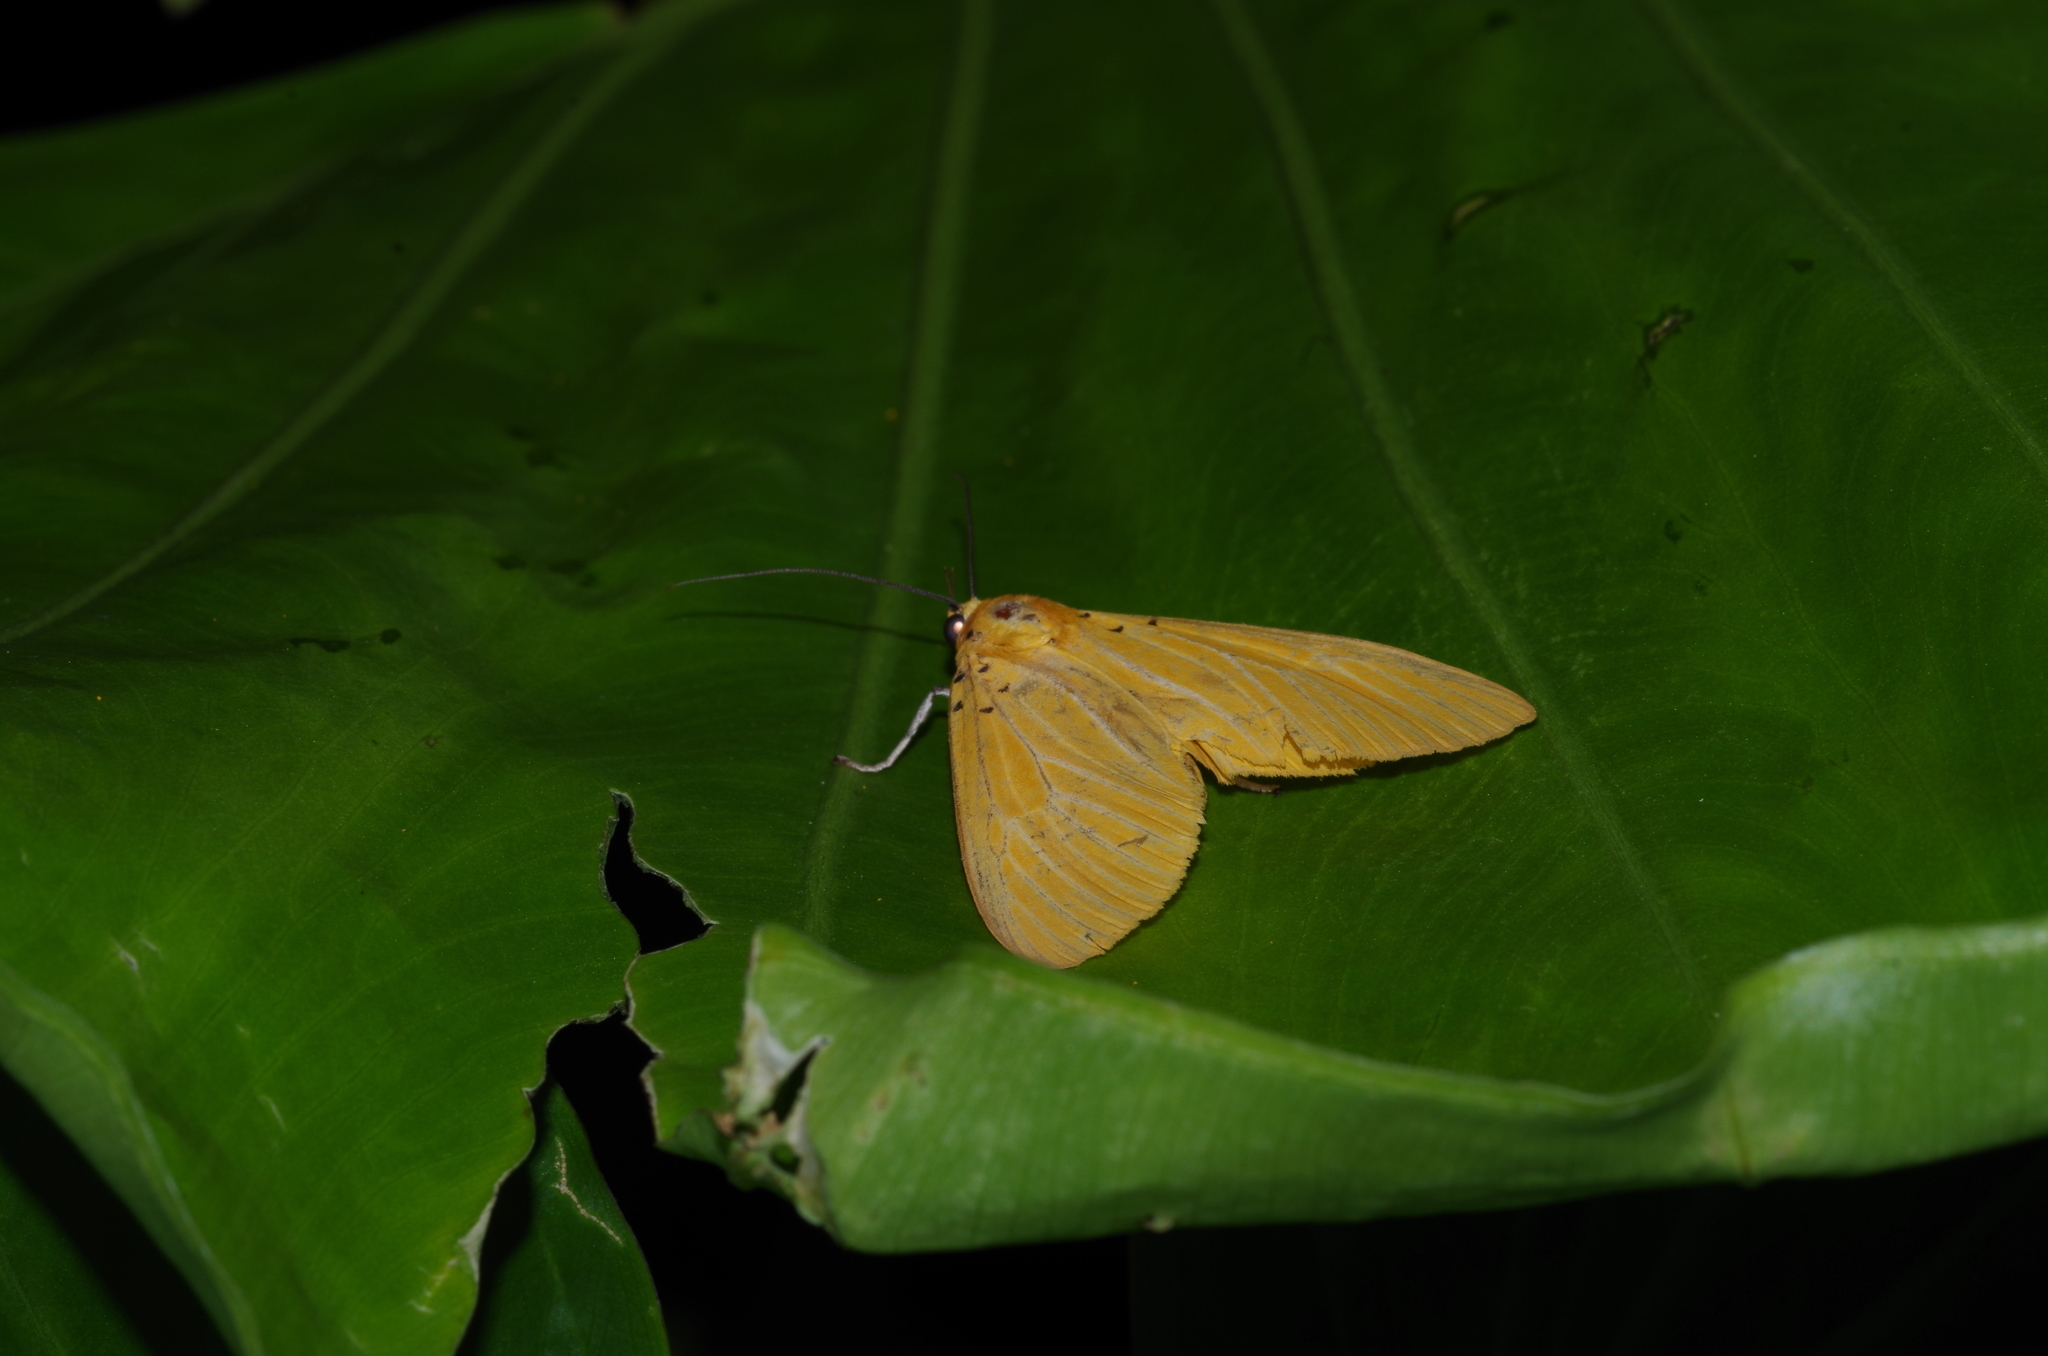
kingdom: Animalia
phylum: Arthropoda
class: Insecta
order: Lepidoptera
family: Erebidae
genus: Asota
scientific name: Asota egens
